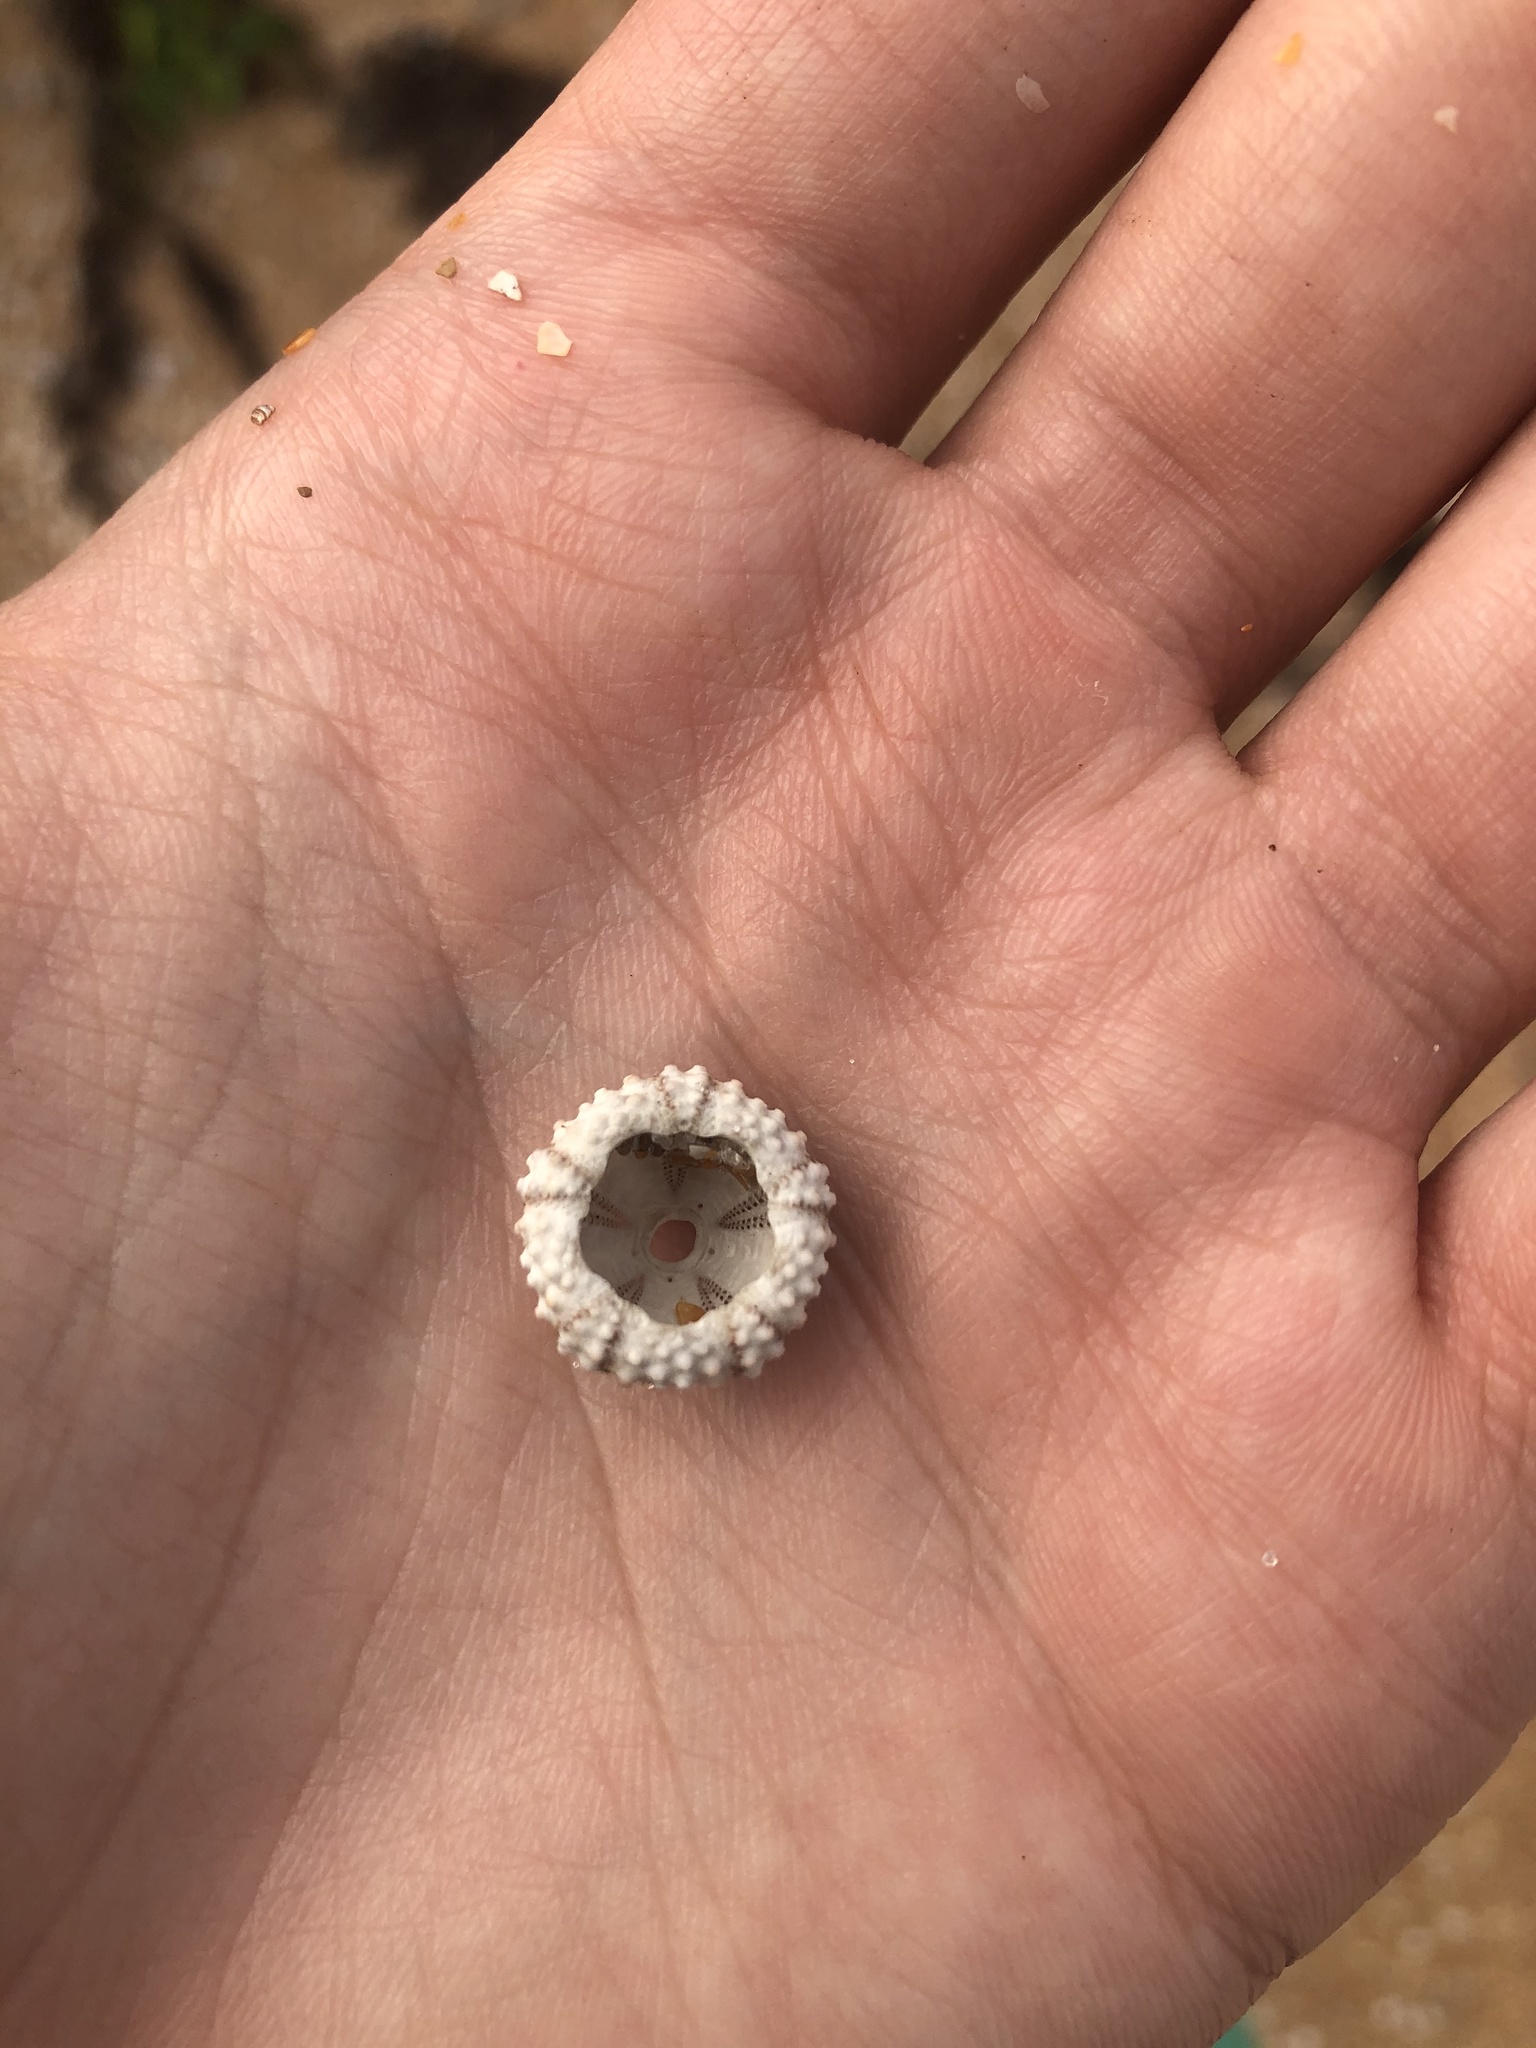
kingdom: Animalia
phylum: Echinodermata
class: Echinoidea
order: Arbacioida
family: Arbaciidae
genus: Arbacia
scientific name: Arbacia punctulata
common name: Purple-spined sea urchin
